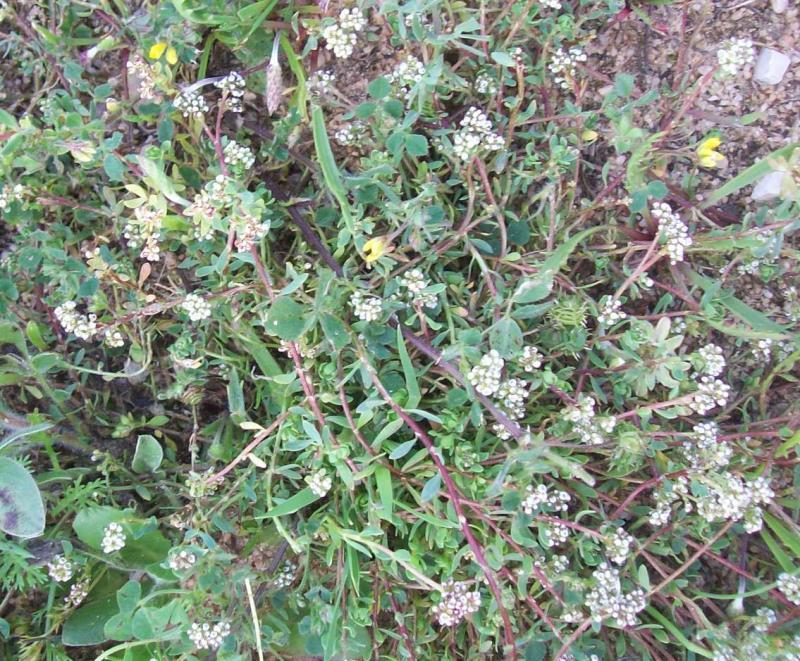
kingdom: Plantae
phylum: Tracheophyta
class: Magnoliopsida
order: Caryophyllales
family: Caryophyllaceae
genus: Corrigiola
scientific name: Corrigiola litoralis
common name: Strapwort
